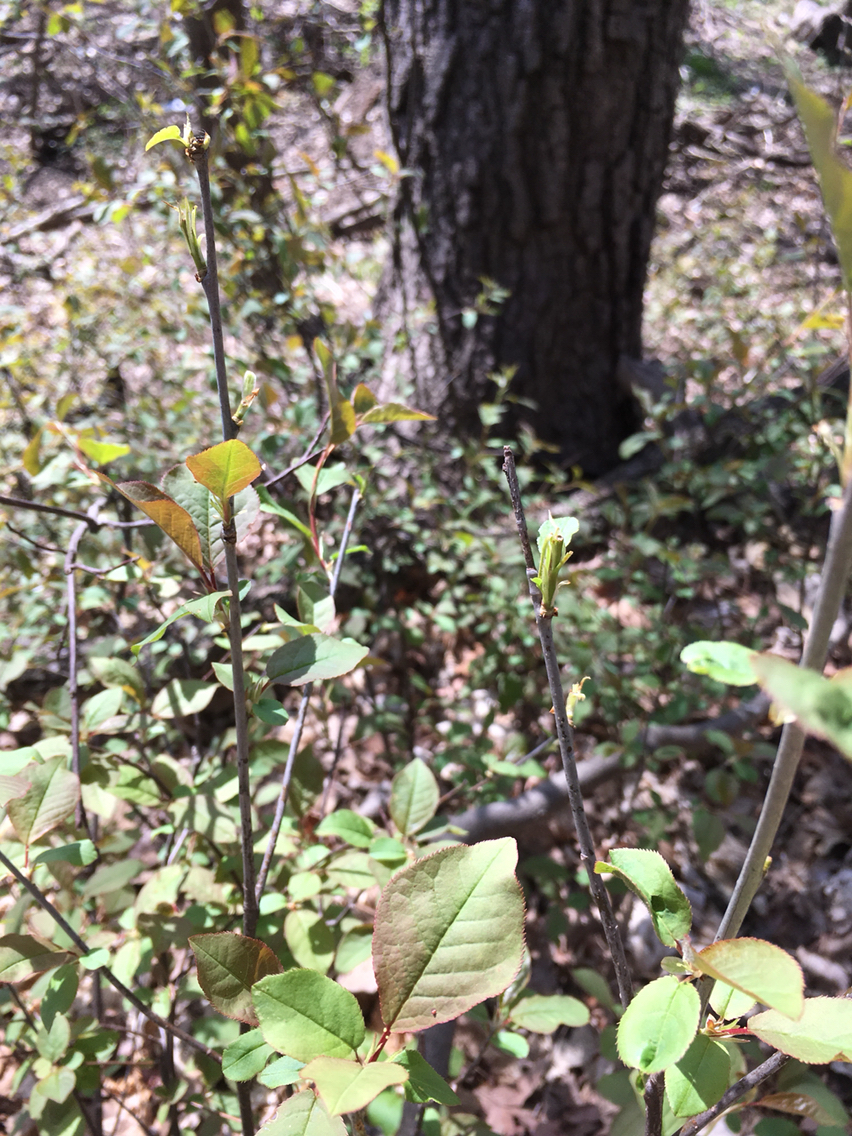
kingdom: Plantae
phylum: Tracheophyta
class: Magnoliopsida
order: Rosales
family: Rosaceae
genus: Prunus
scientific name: Prunus virginiana
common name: Chokecherry
